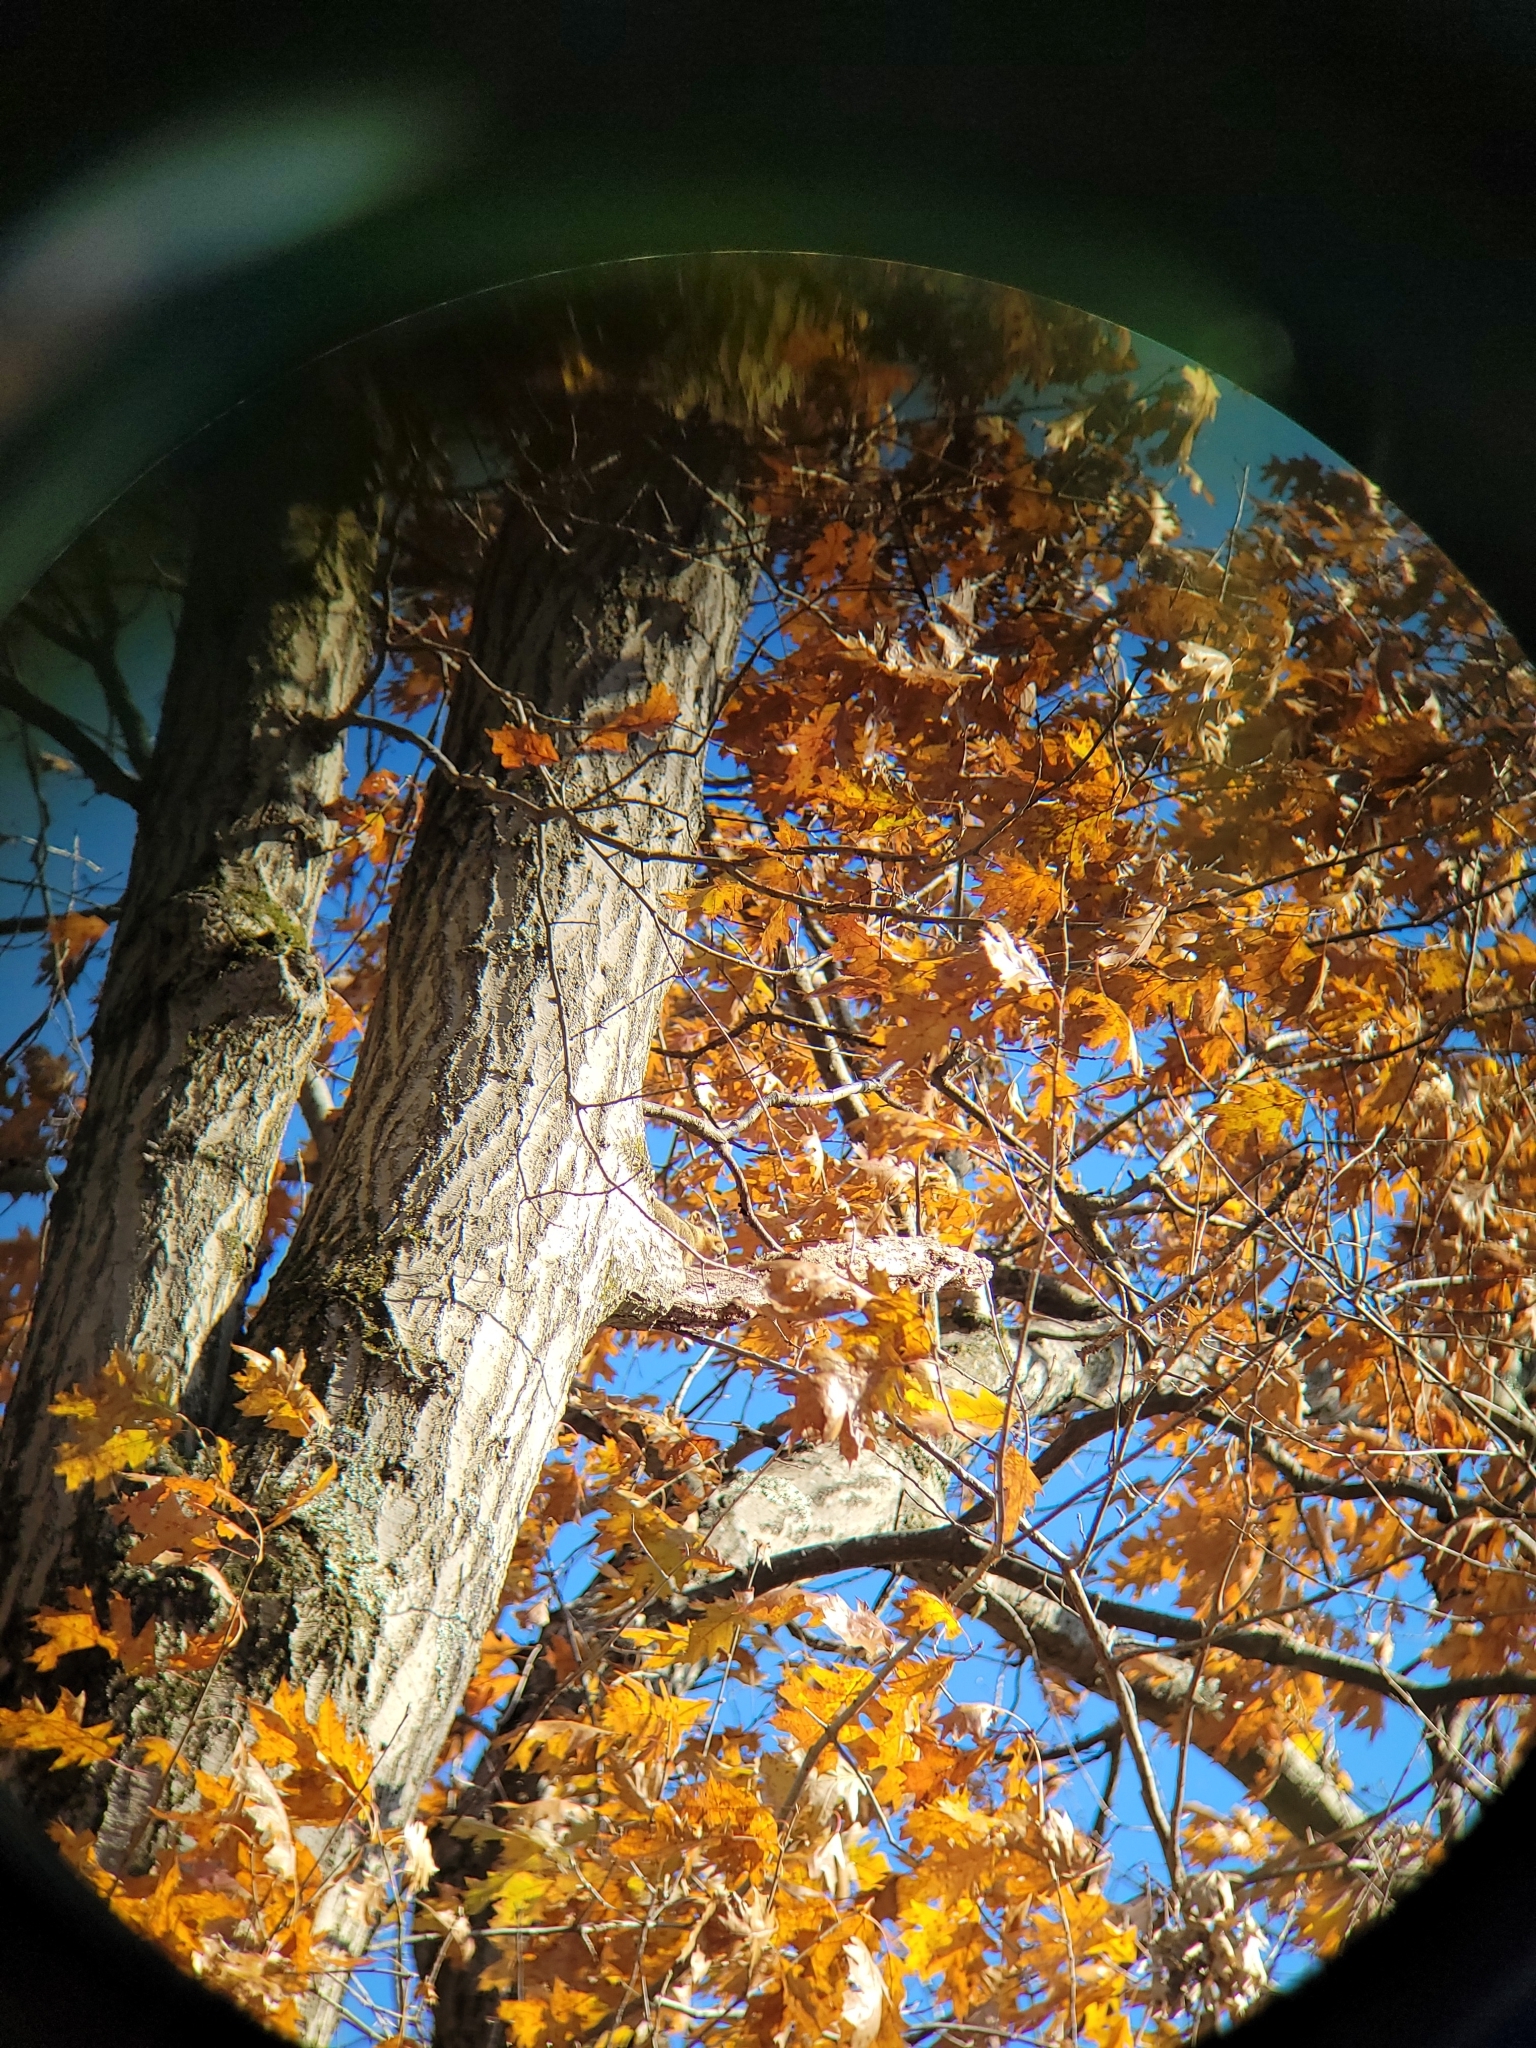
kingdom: Animalia
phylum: Chordata
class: Mammalia
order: Rodentia
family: Sciuridae
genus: Sciurus
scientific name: Sciurus niger
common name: Fox squirrel
